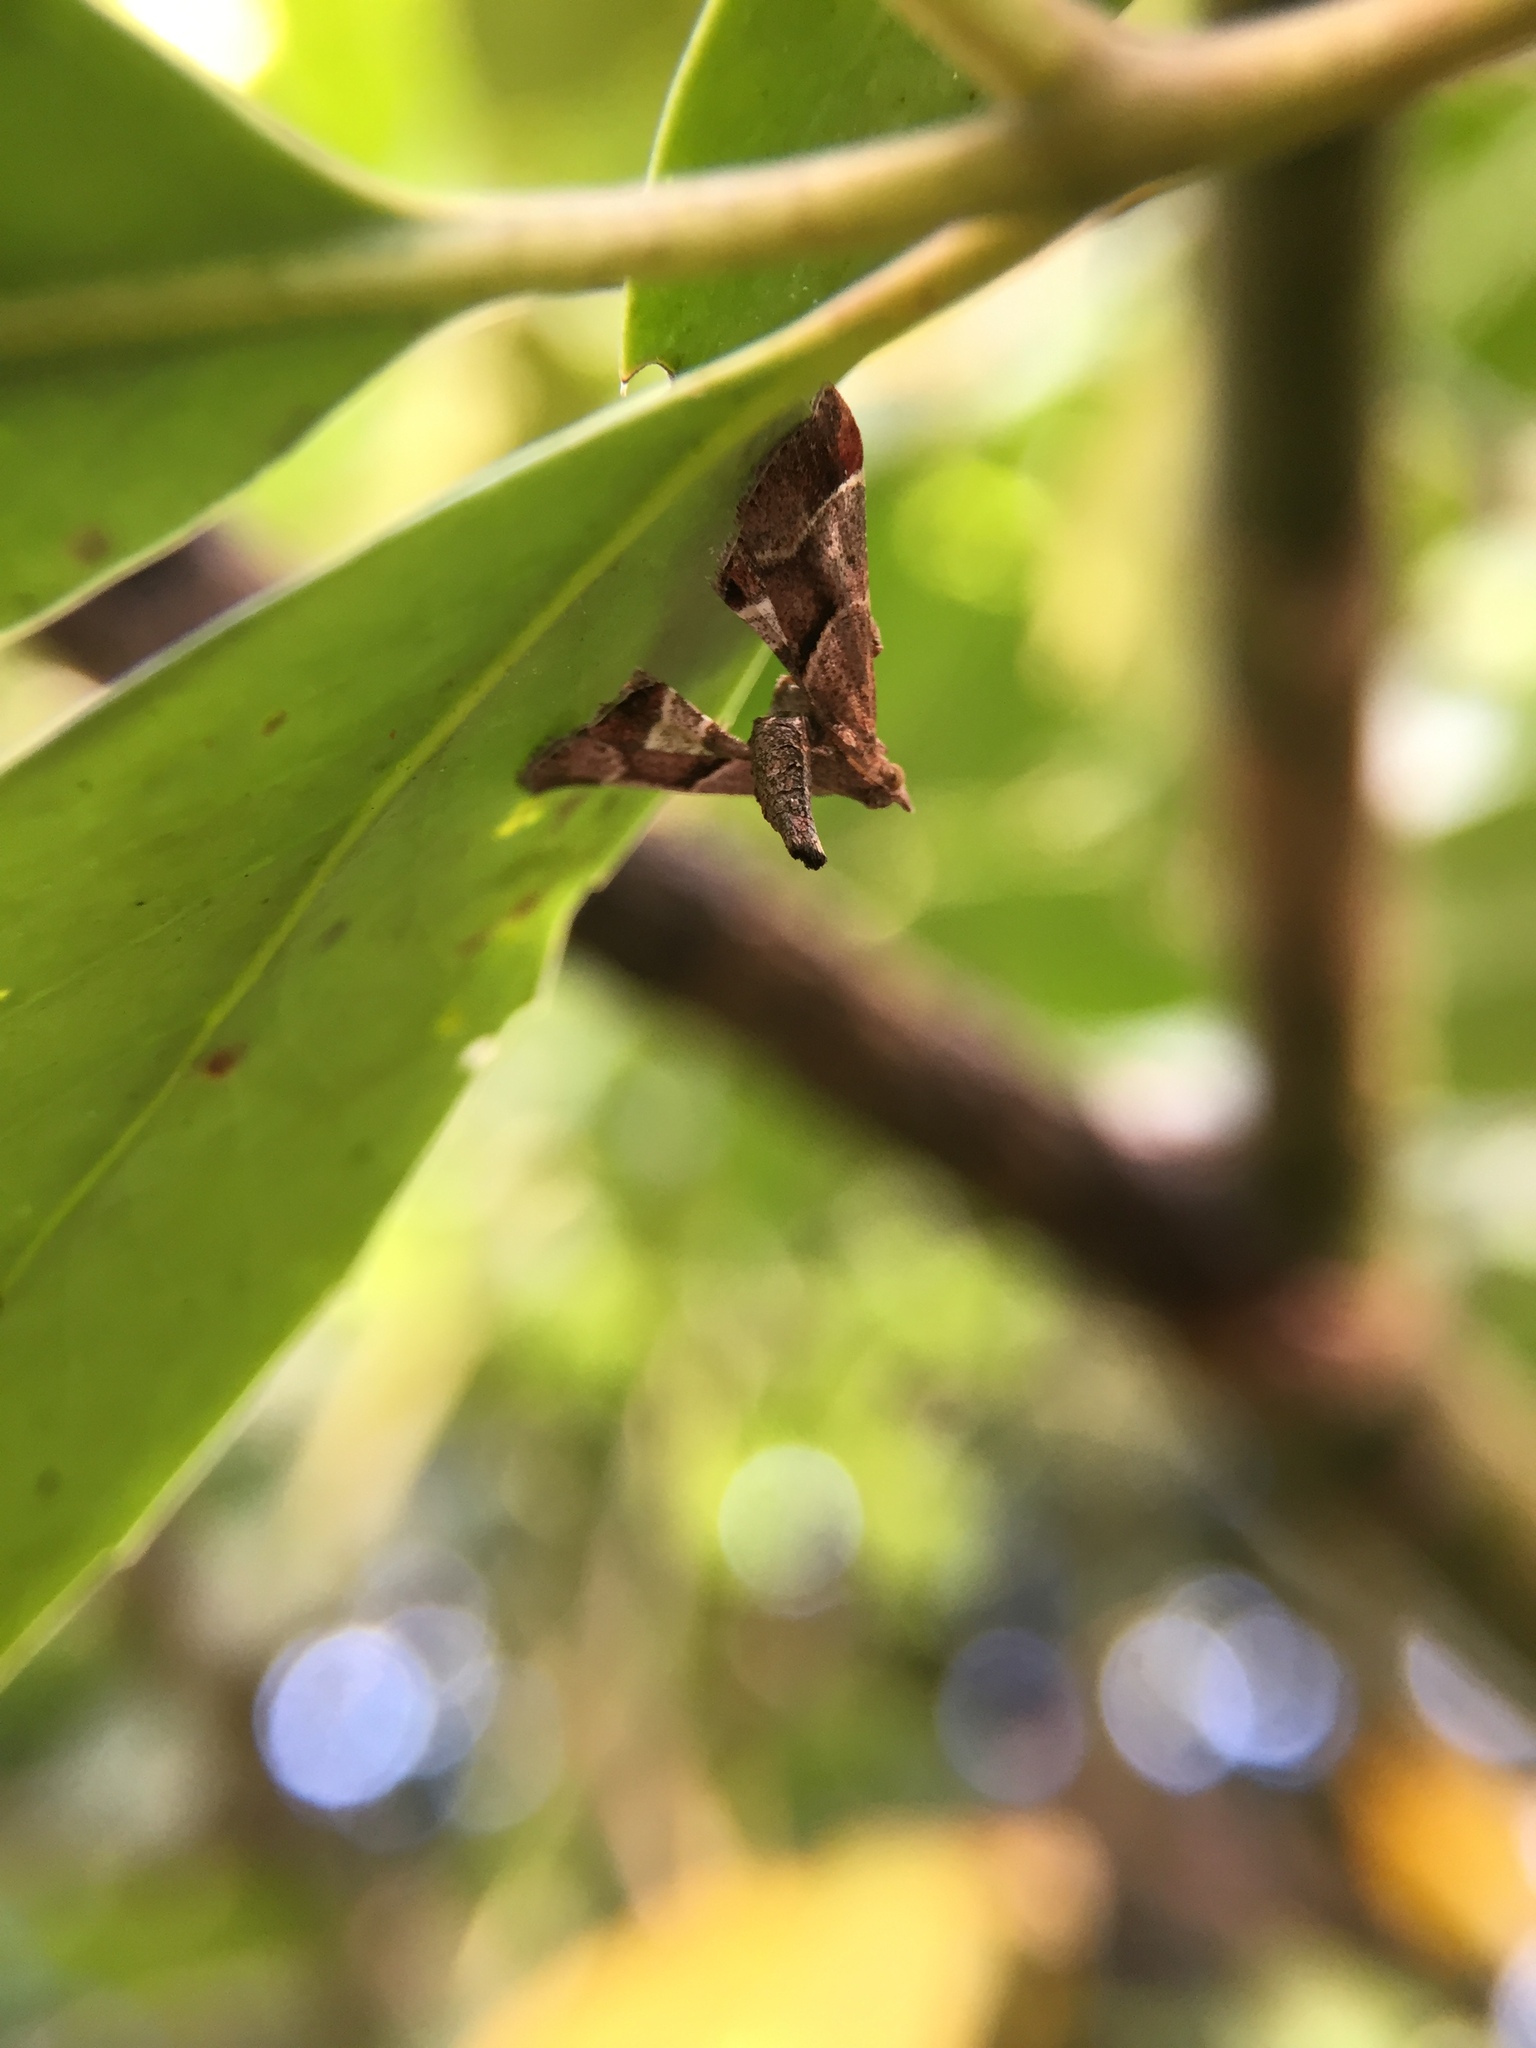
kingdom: Animalia
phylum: Arthropoda
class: Insecta
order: Lepidoptera
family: Pyralidae
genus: Gauna
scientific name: Gauna aegusalis
